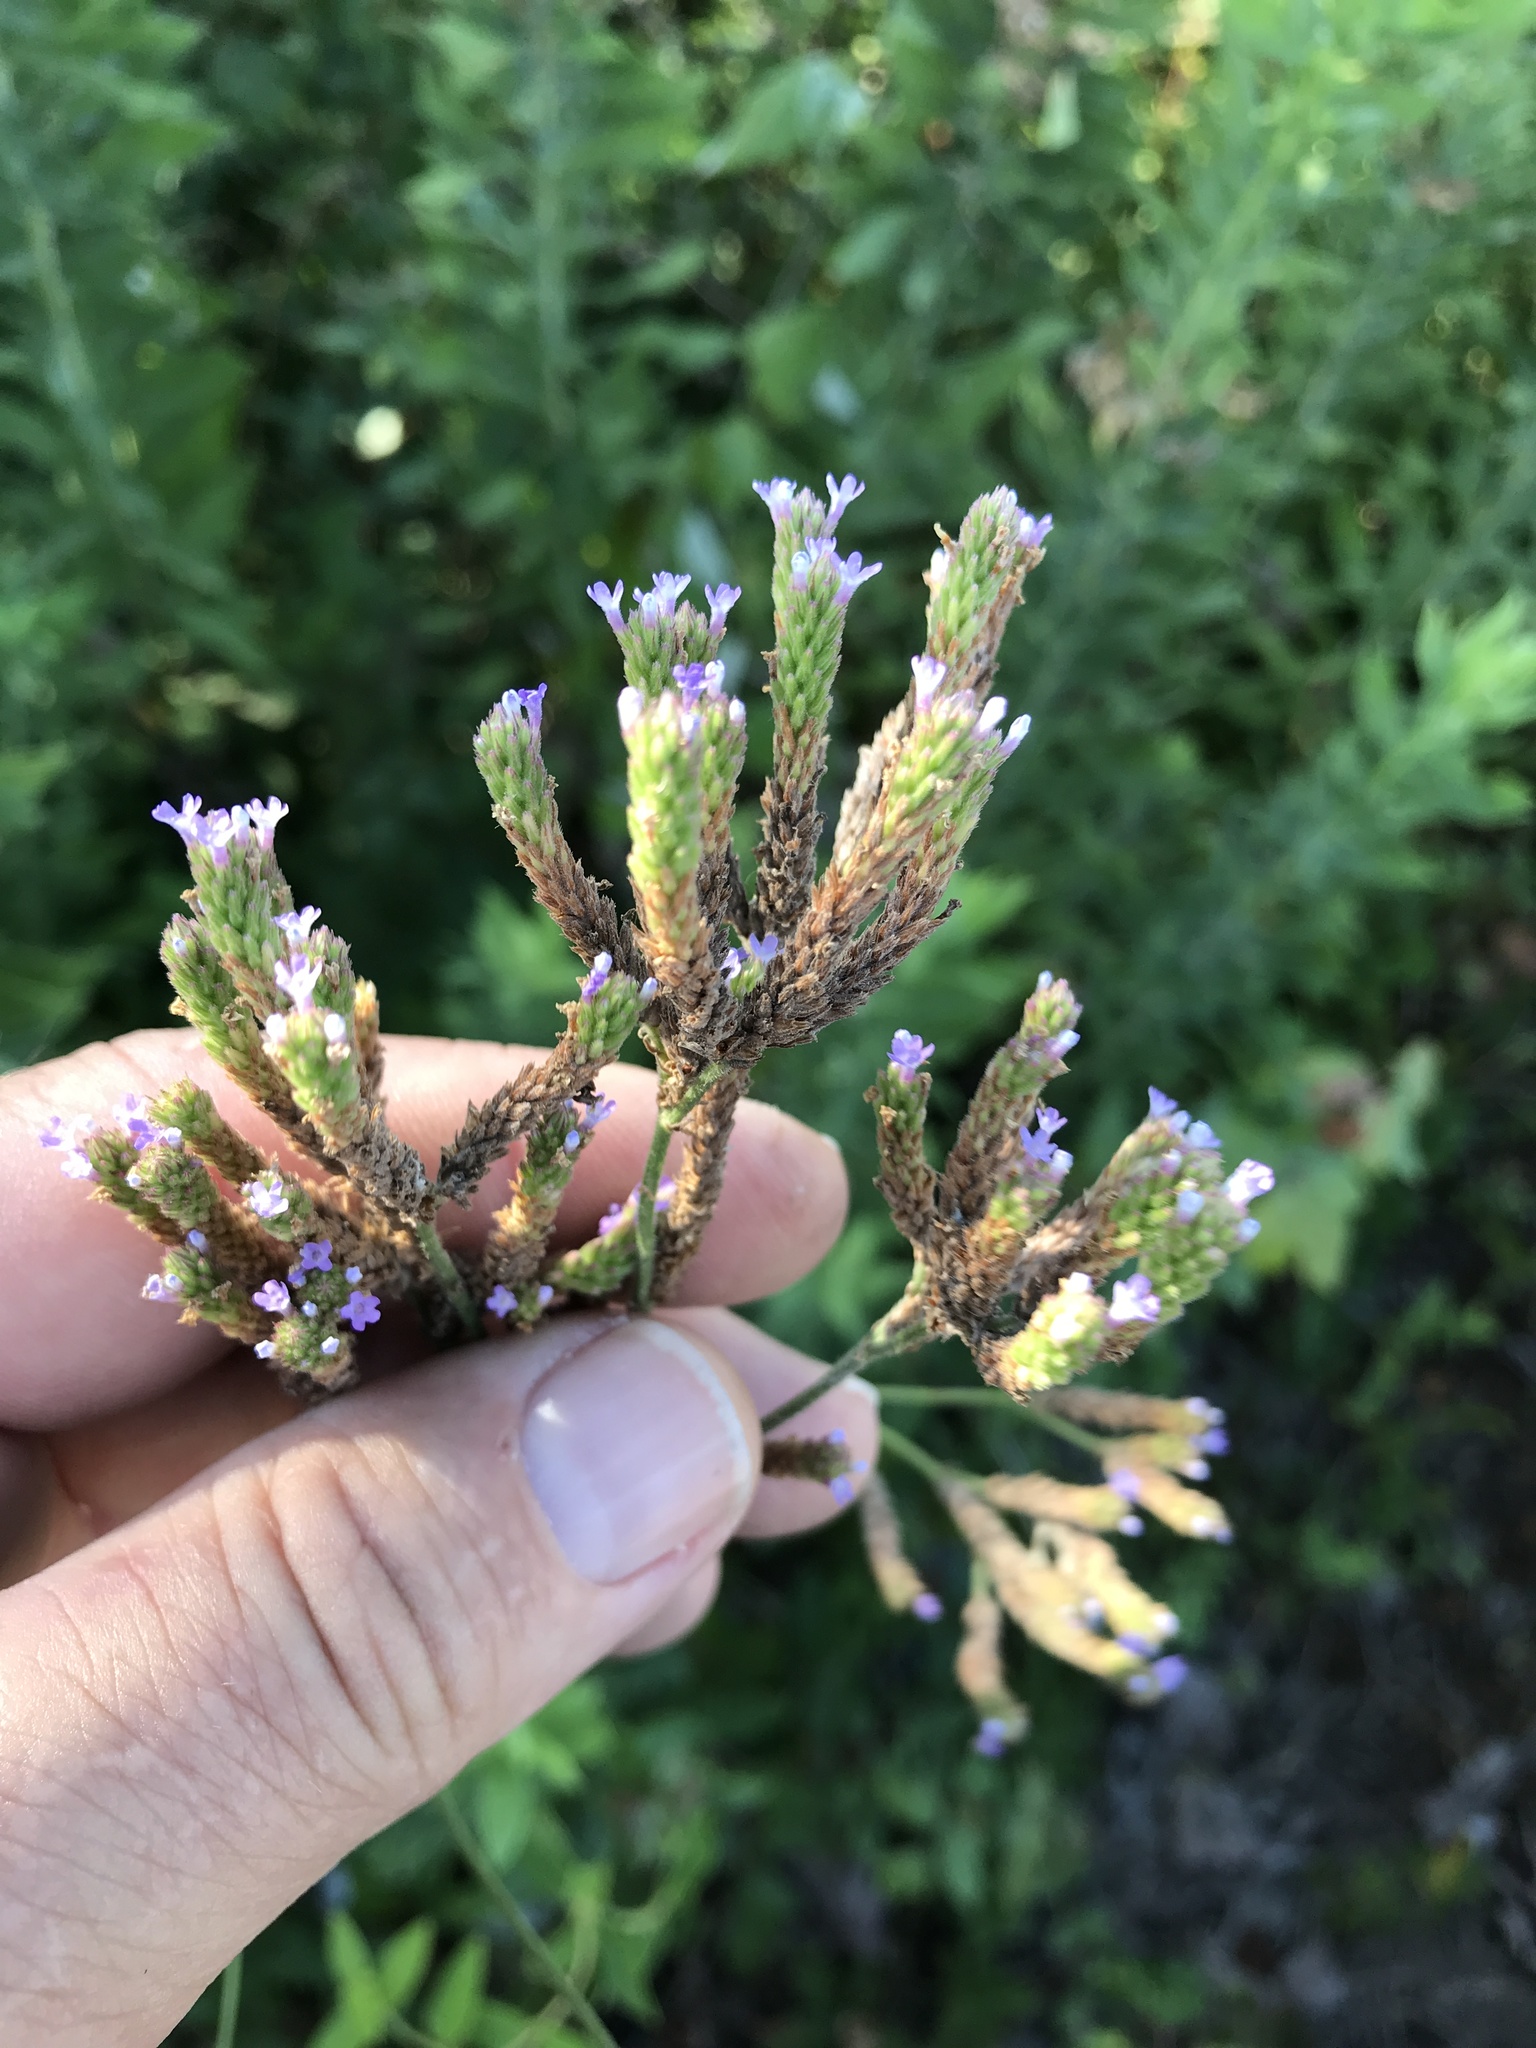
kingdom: Plantae
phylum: Tracheophyta
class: Magnoliopsida
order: Lamiales
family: Verbenaceae
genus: Verbena
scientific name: Verbena brasiliensis
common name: Brazilian vervain
